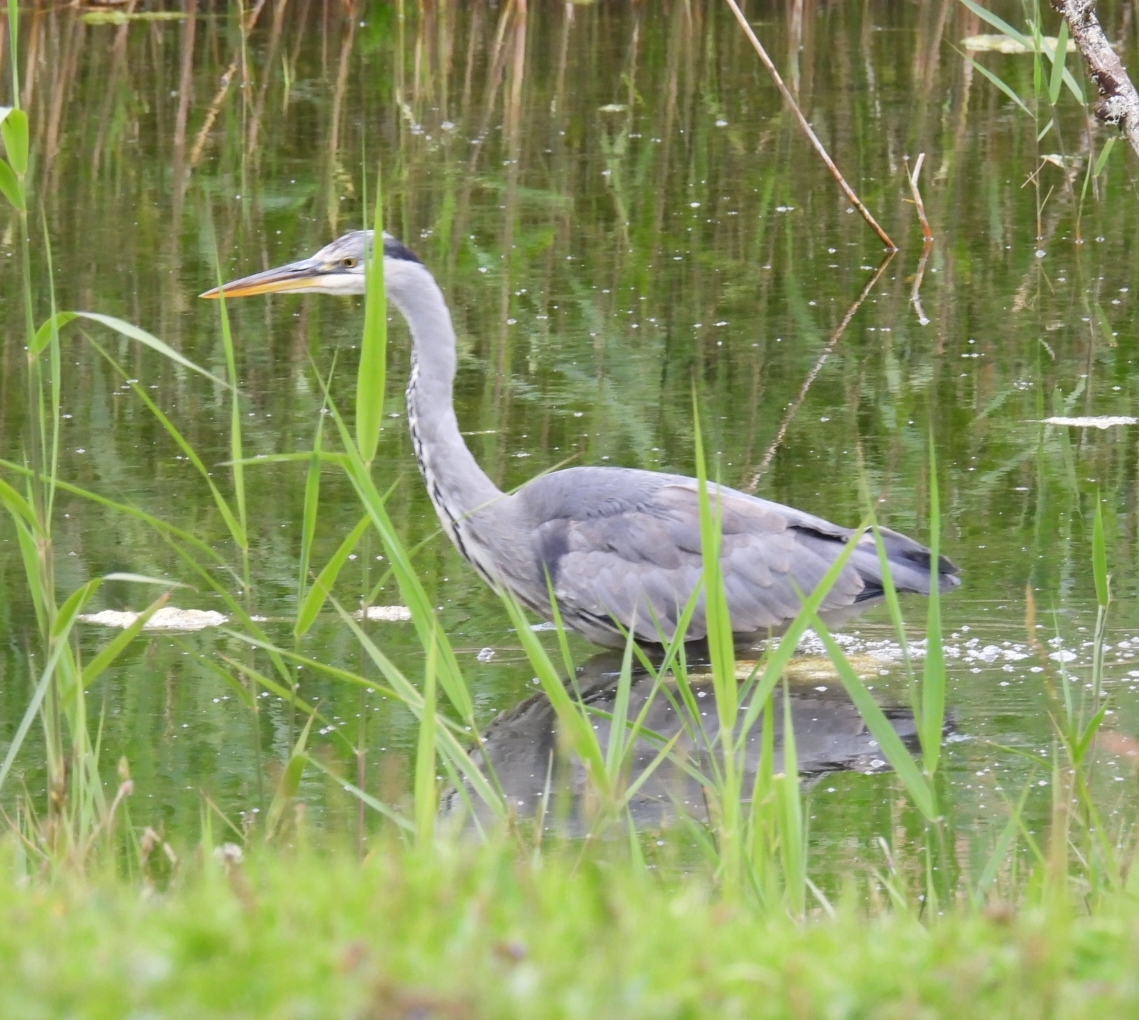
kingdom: Animalia
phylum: Chordata
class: Aves
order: Pelecaniformes
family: Ardeidae
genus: Ardea
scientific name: Ardea cinerea
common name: Grey heron
